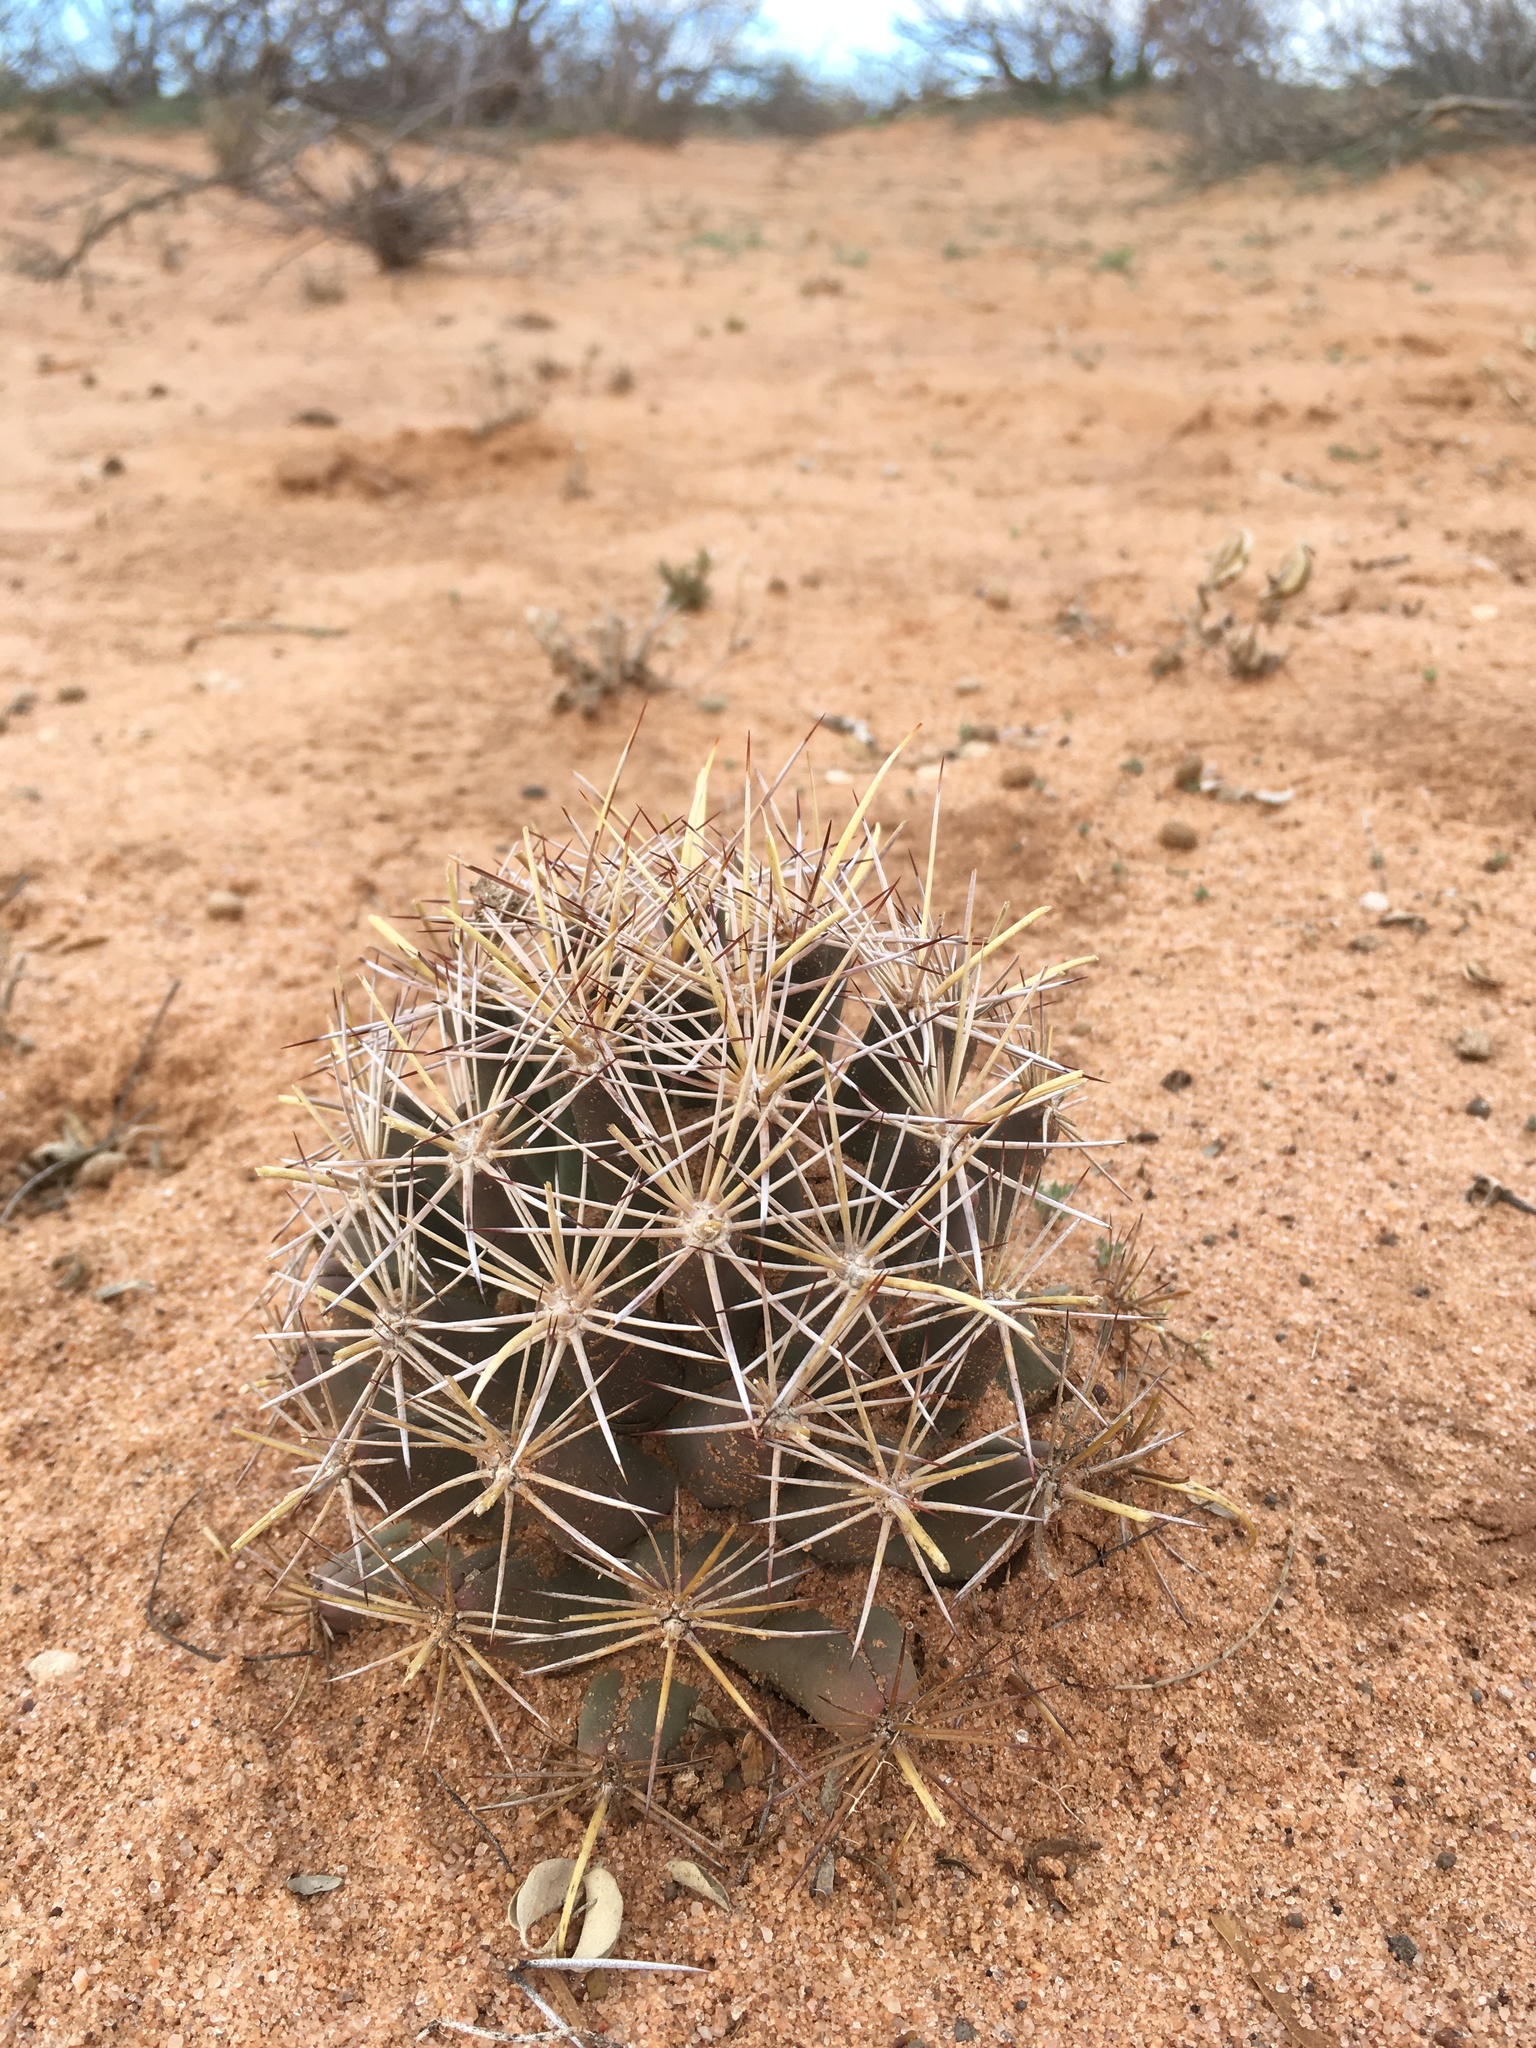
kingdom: Plantae
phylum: Tracheophyta
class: Magnoliopsida
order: Caryophyllales
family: Cactaceae
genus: Coryphantha
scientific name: Coryphantha robustispina
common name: Pima pineapple cactus
